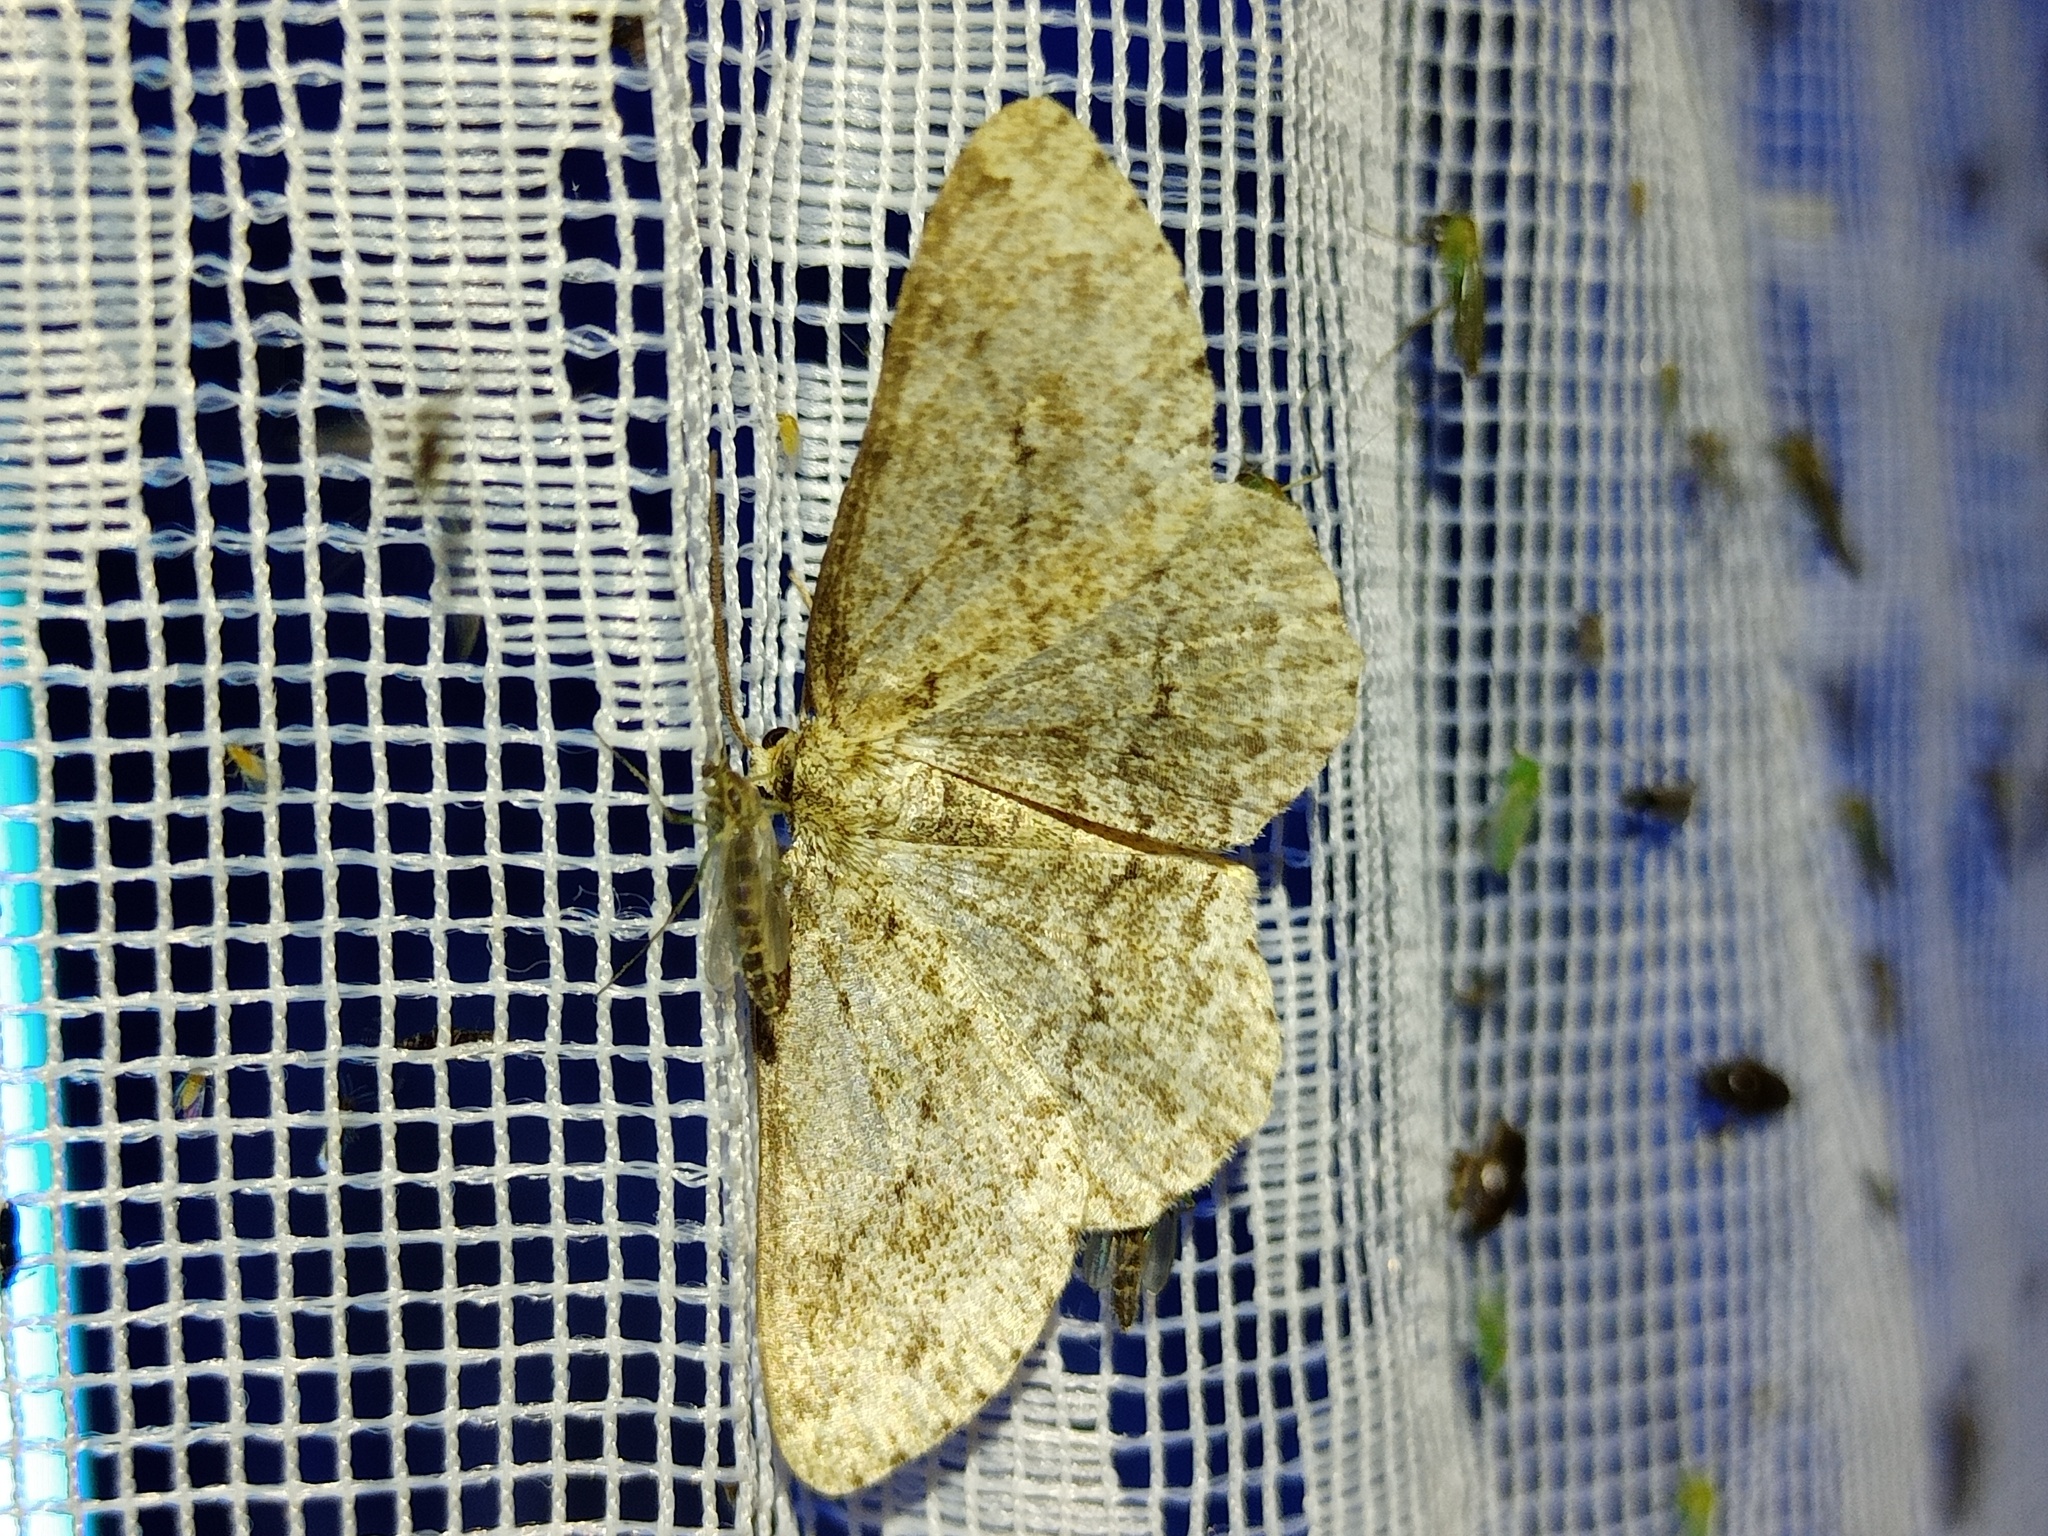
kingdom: Animalia
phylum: Arthropoda
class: Insecta
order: Lepidoptera
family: Geometridae
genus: Ectropis
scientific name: Ectropis crepuscularia
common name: Engrailed
